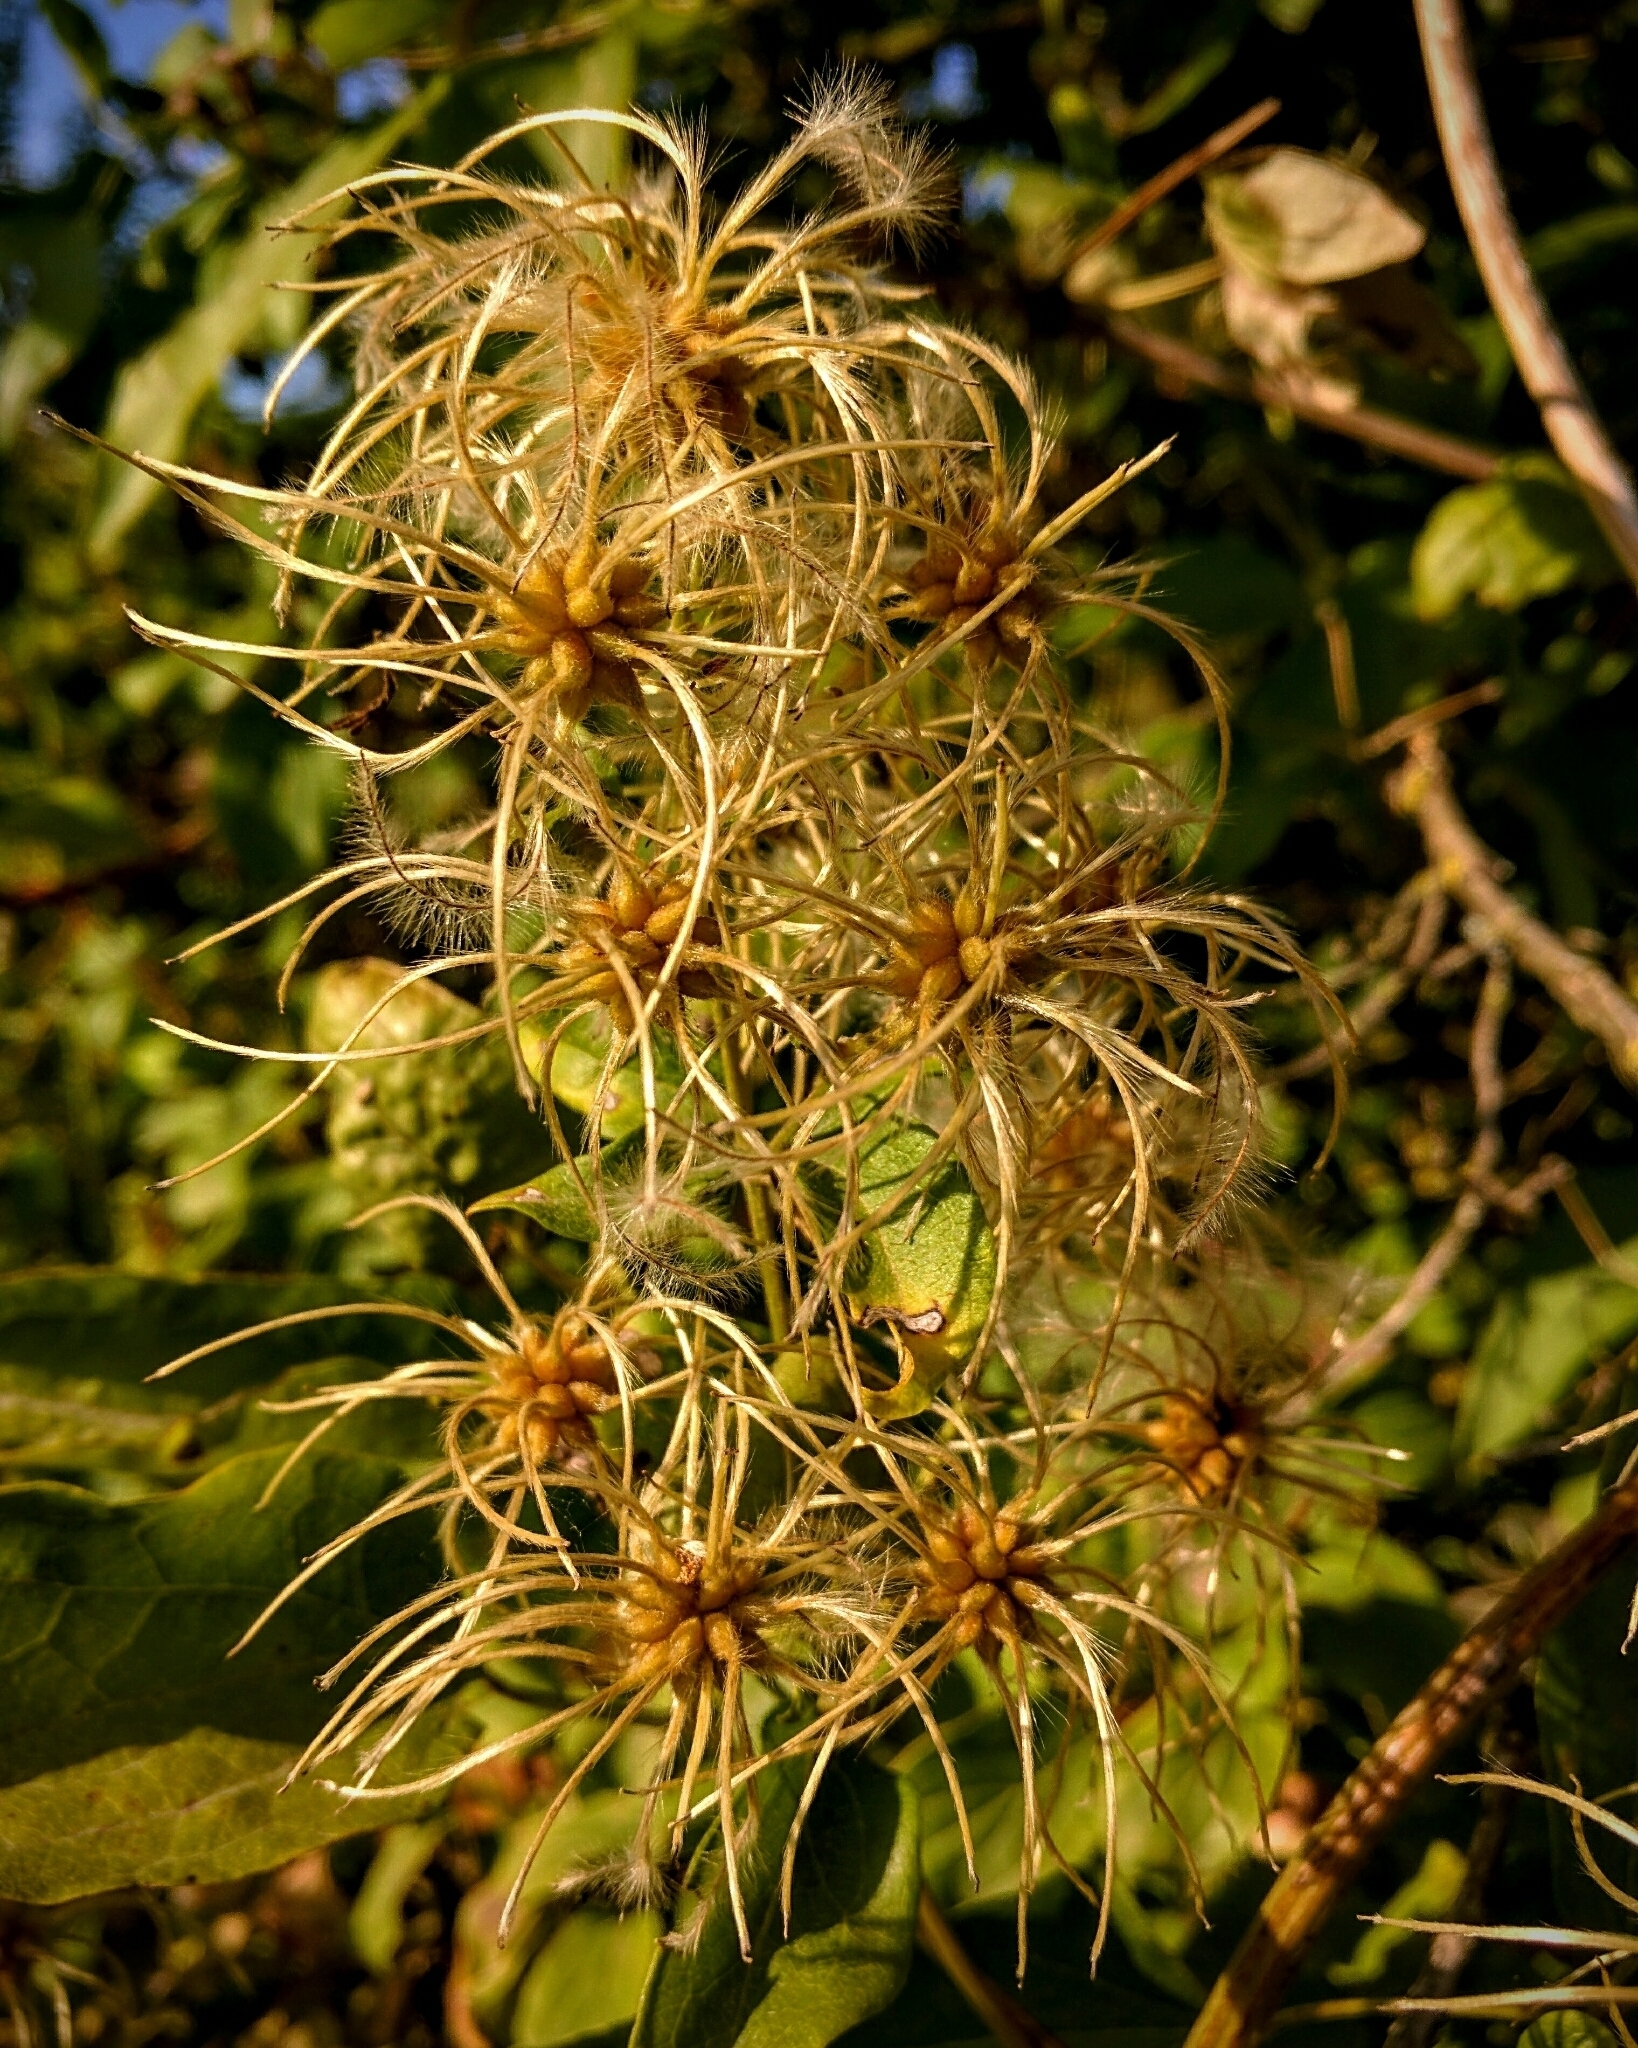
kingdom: Plantae
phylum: Tracheophyta
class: Magnoliopsida
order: Ranunculales
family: Ranunculaceae
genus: Clematis
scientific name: Clematis vitalba
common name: Evergreen clematis
